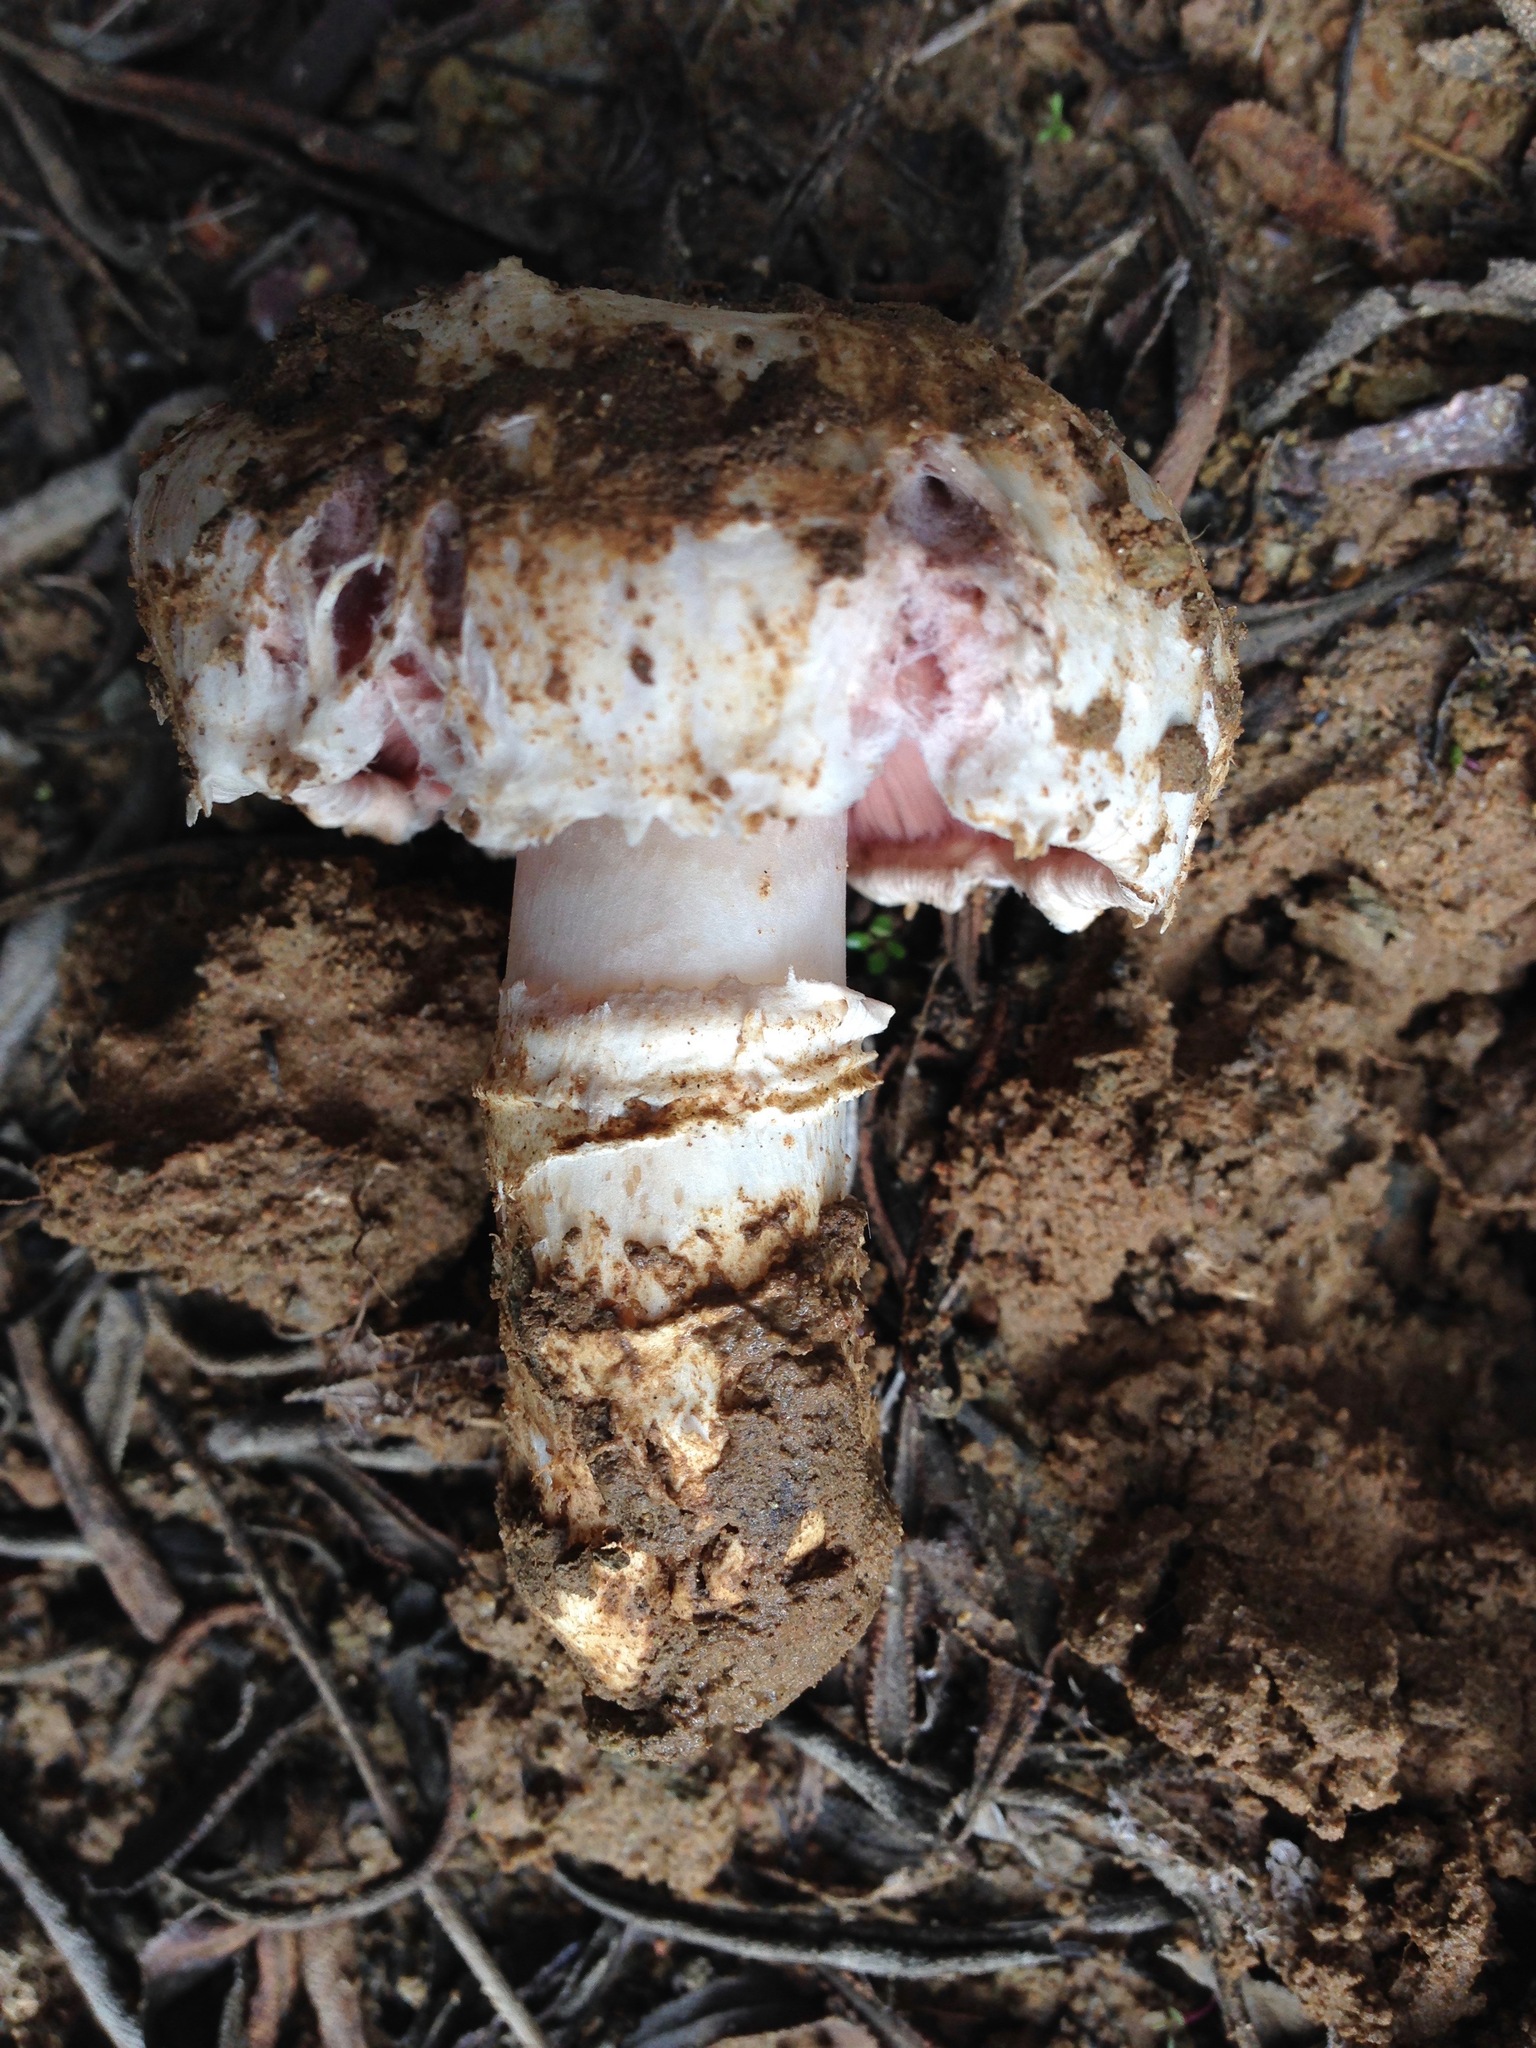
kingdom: Fungi
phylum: Basidiomycota
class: Agaricomycetes
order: Agaricales
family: Agaricaceae
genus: Agaricus
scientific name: Agaricus bitorquis
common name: Pavement mushroom
